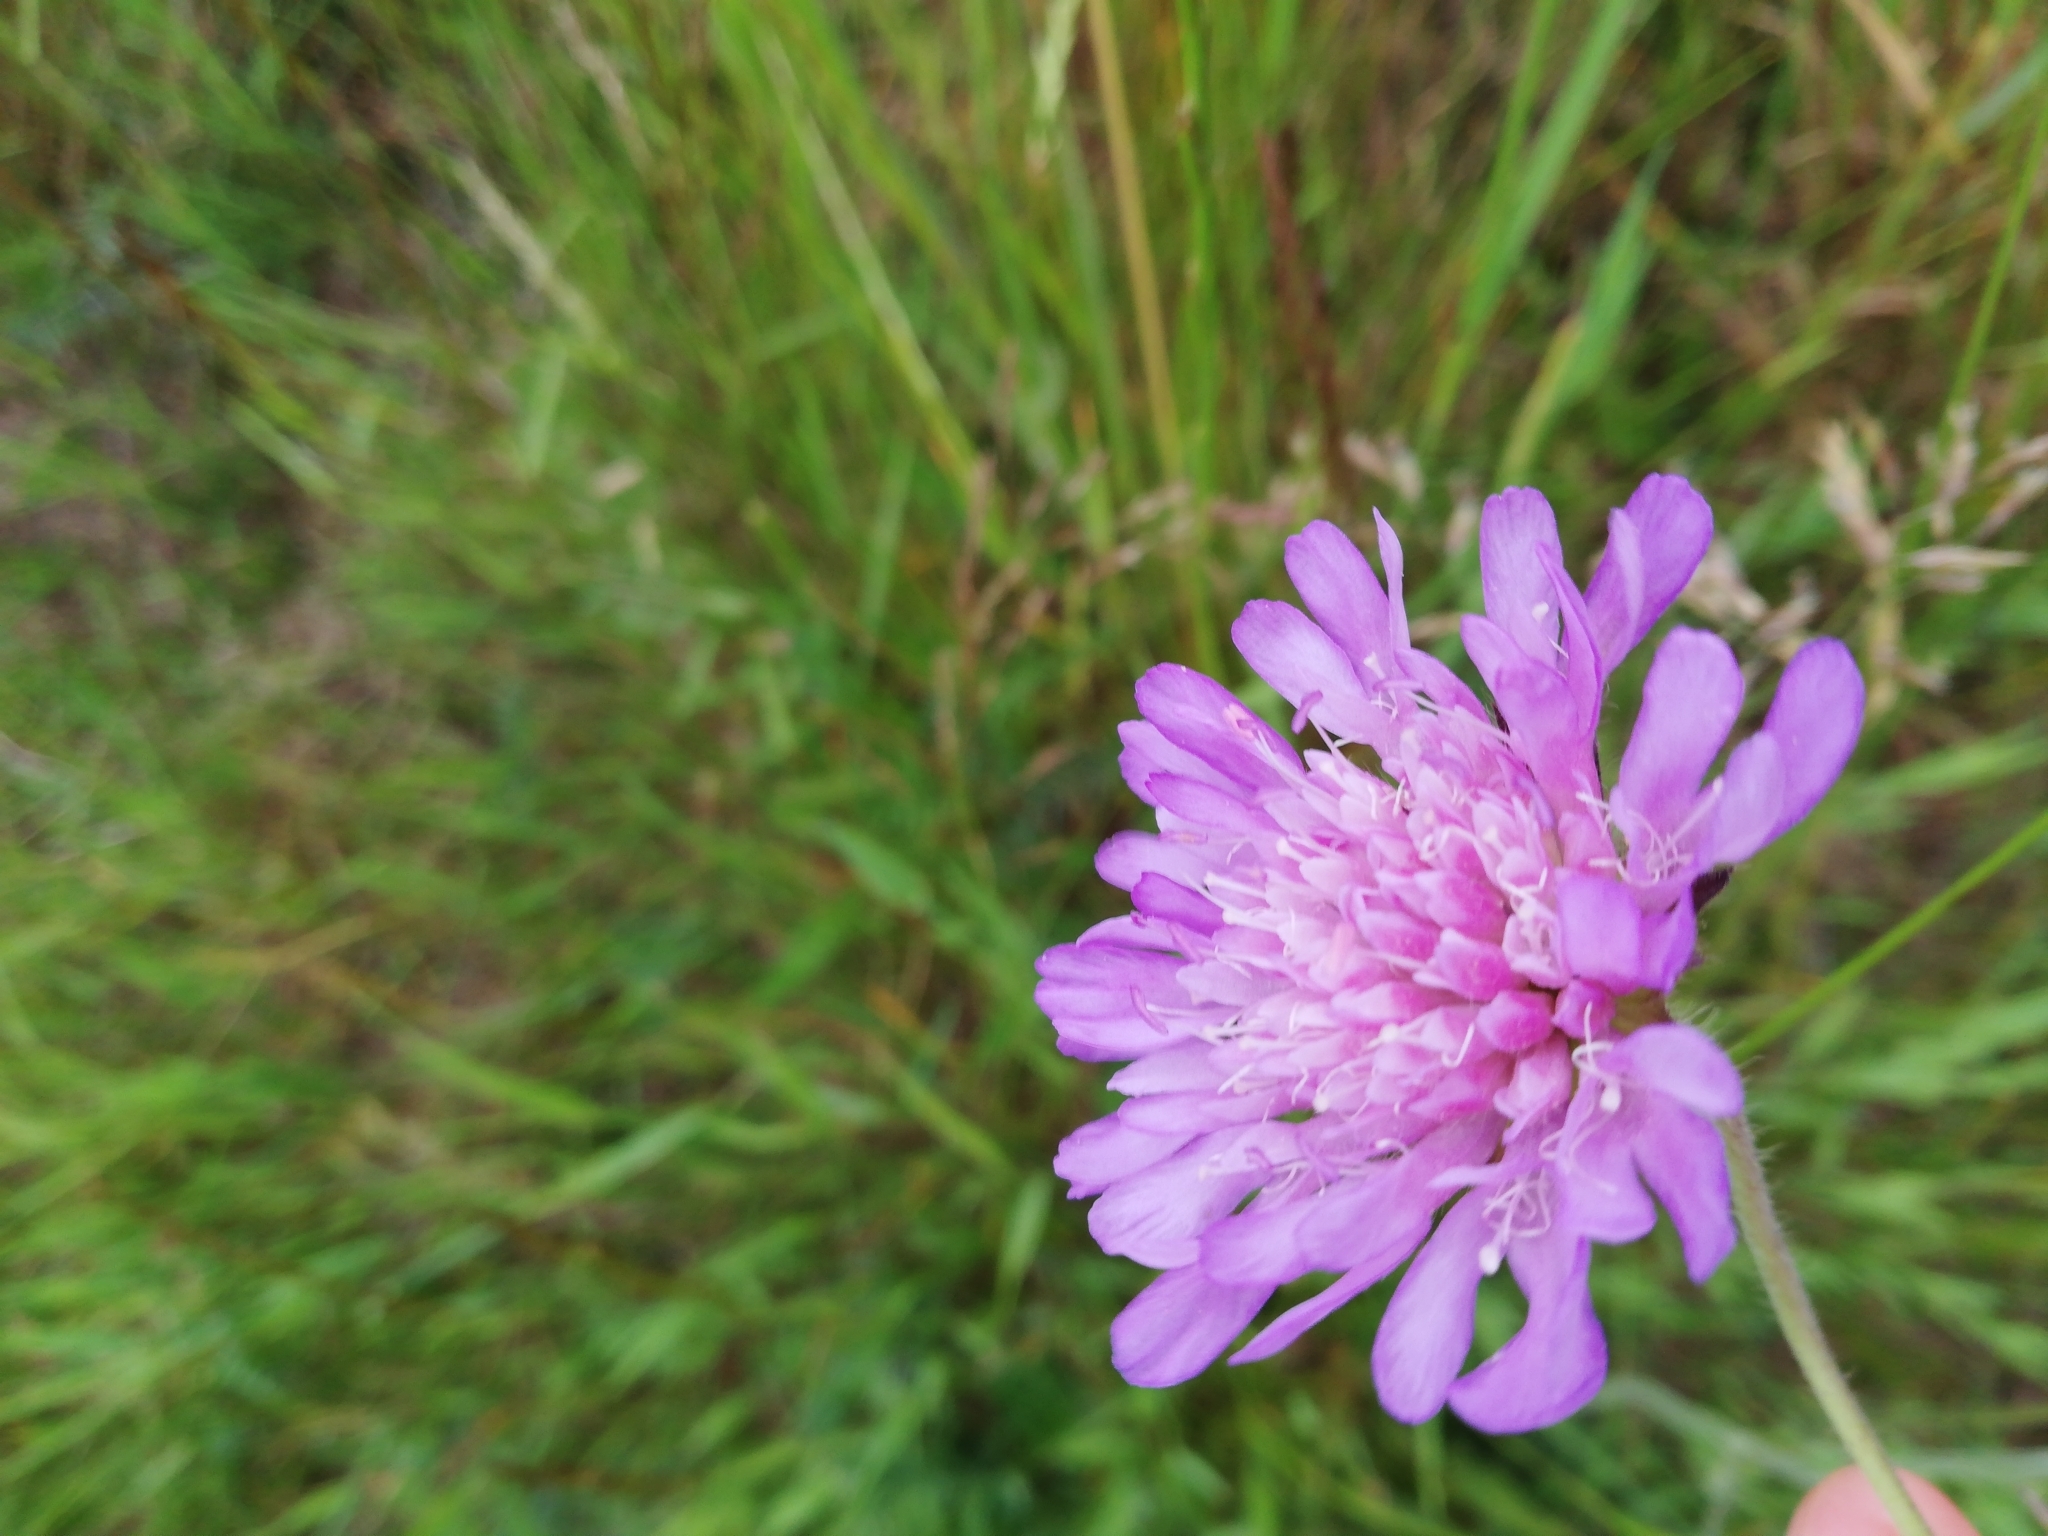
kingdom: Plantae
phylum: Tracheophyta
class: Magnoliopsida
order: Dipsacales
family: Caprifoliaceae
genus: Knautia
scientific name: Knautia arvensis
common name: Field scabiosa
